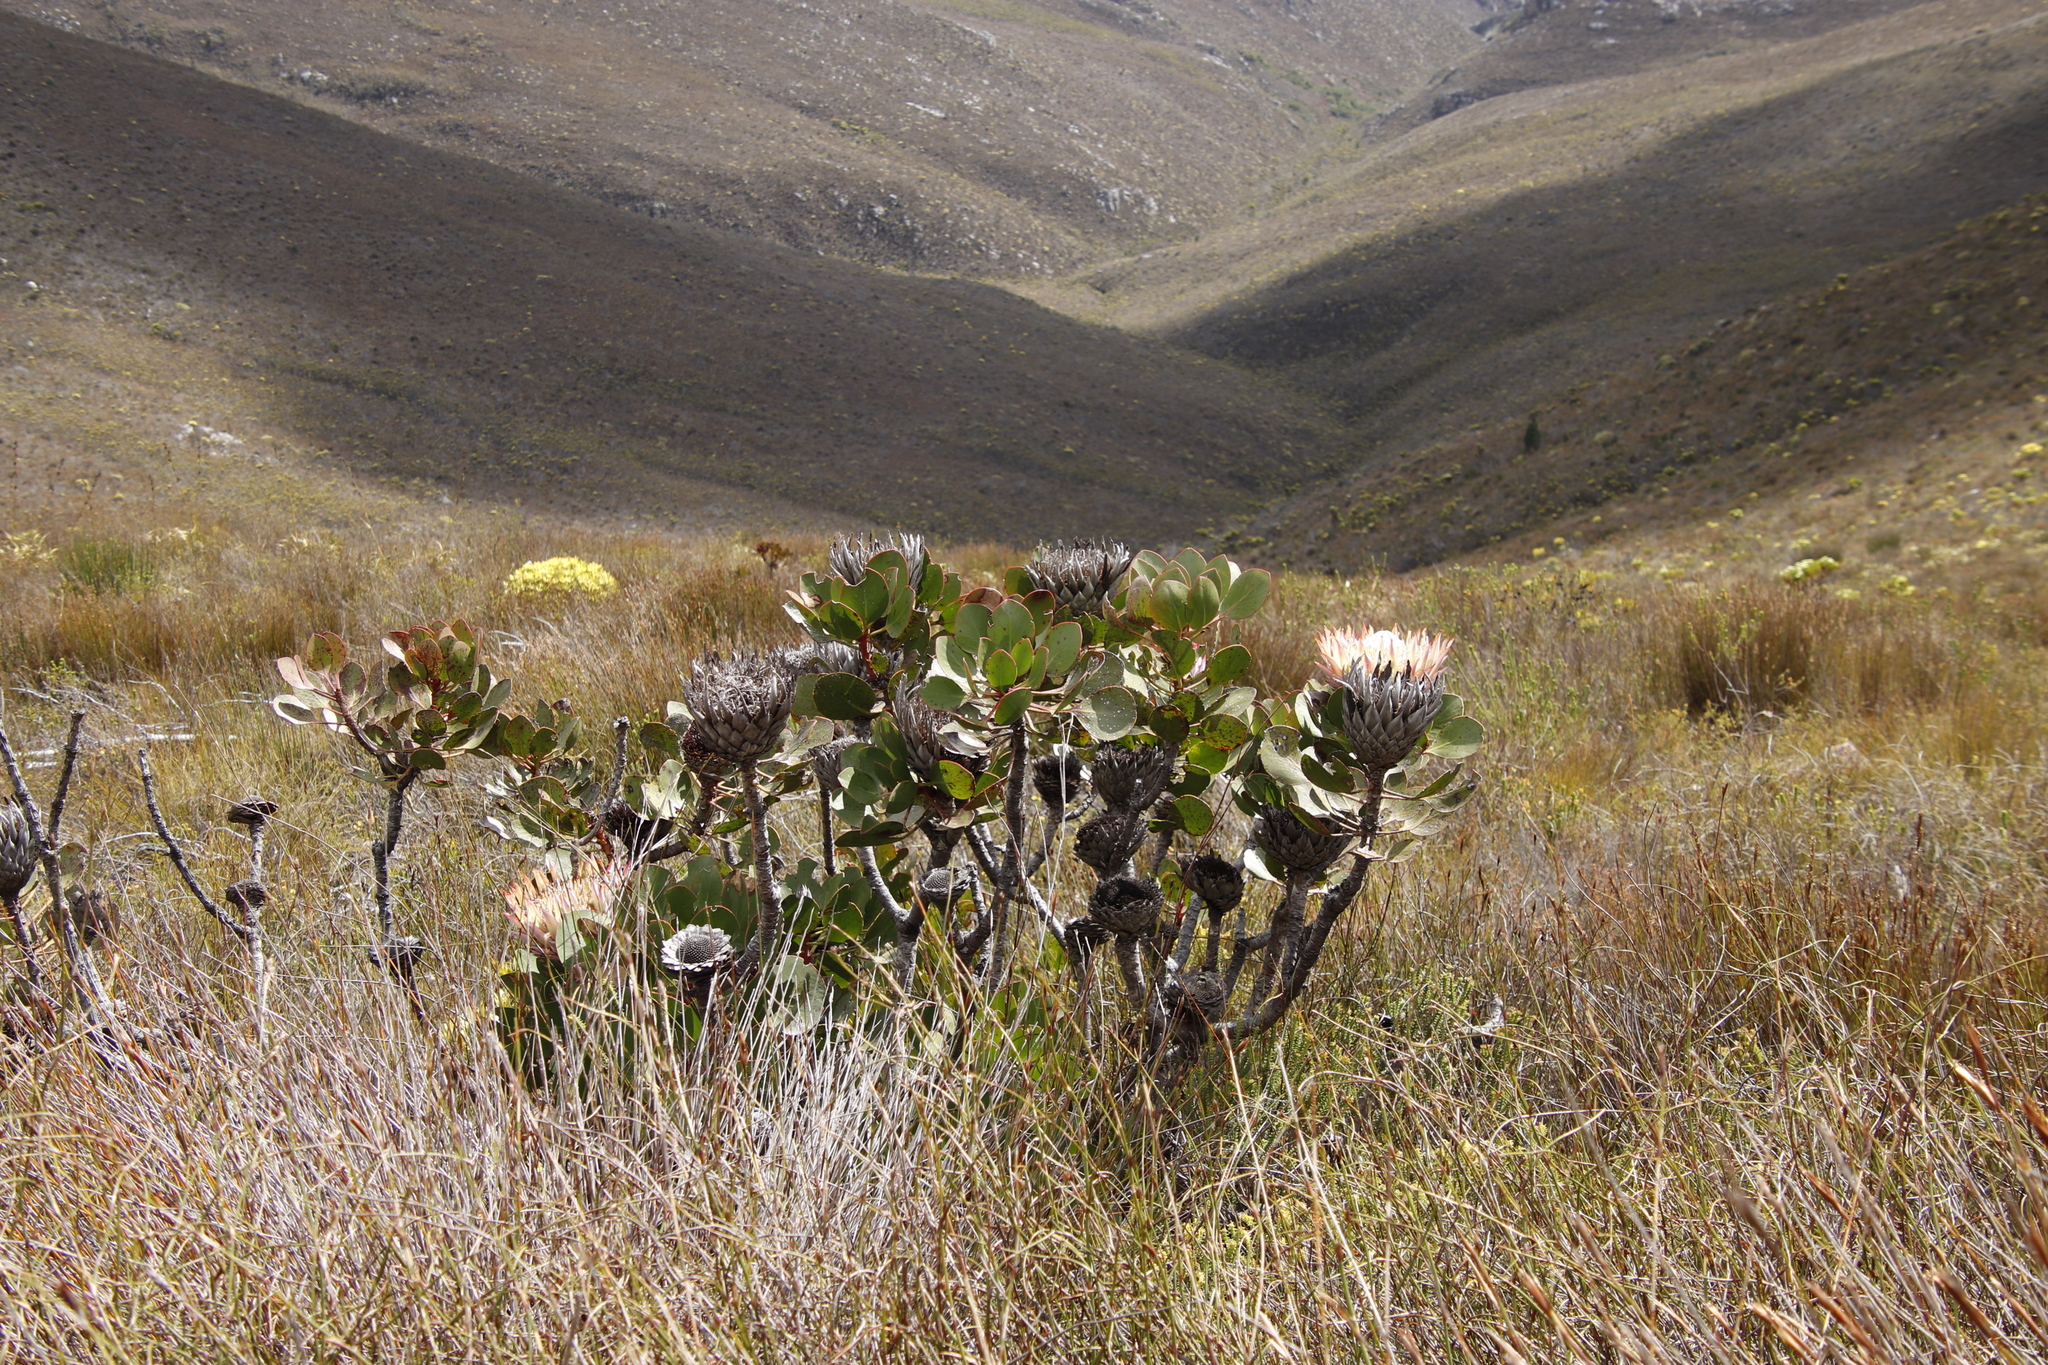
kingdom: Plantae
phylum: Tracheophyta
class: Magnoliopsida
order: Proteales
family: Proteaceae
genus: Protea
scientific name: Protea cynaroides
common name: King protea
